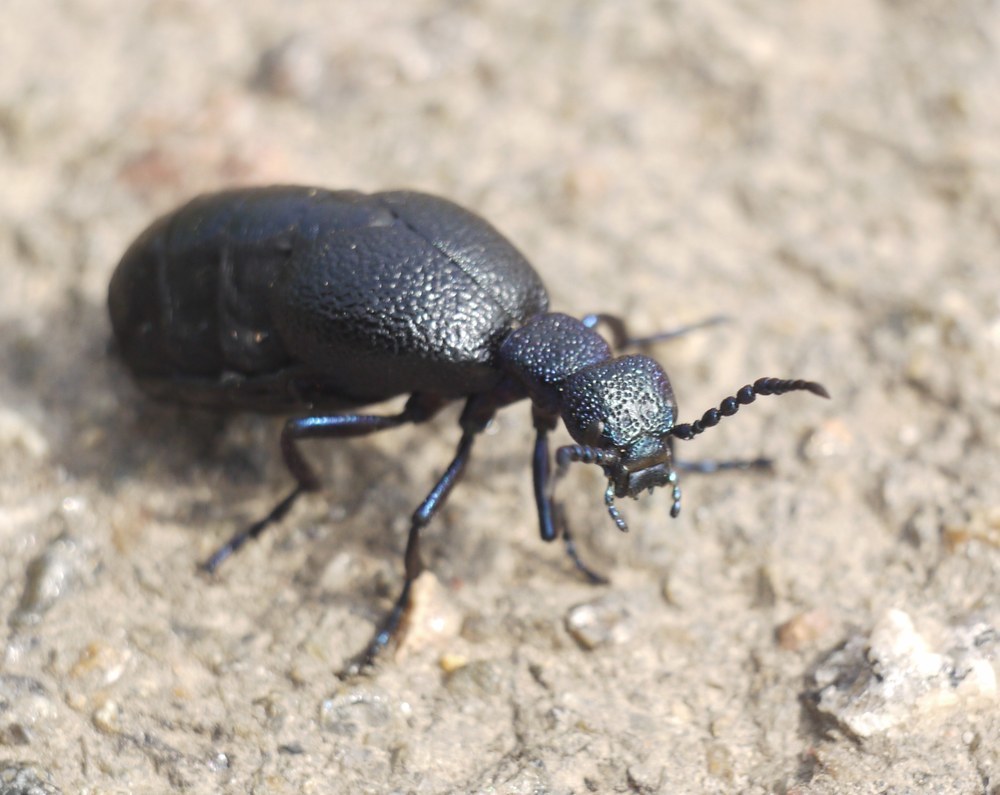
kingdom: Animalia
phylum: Arthropoda
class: Insecta
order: Coleoptera
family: Meloidae
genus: Meloe
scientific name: Meloe proscarabaeus
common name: Black oil-beetle
